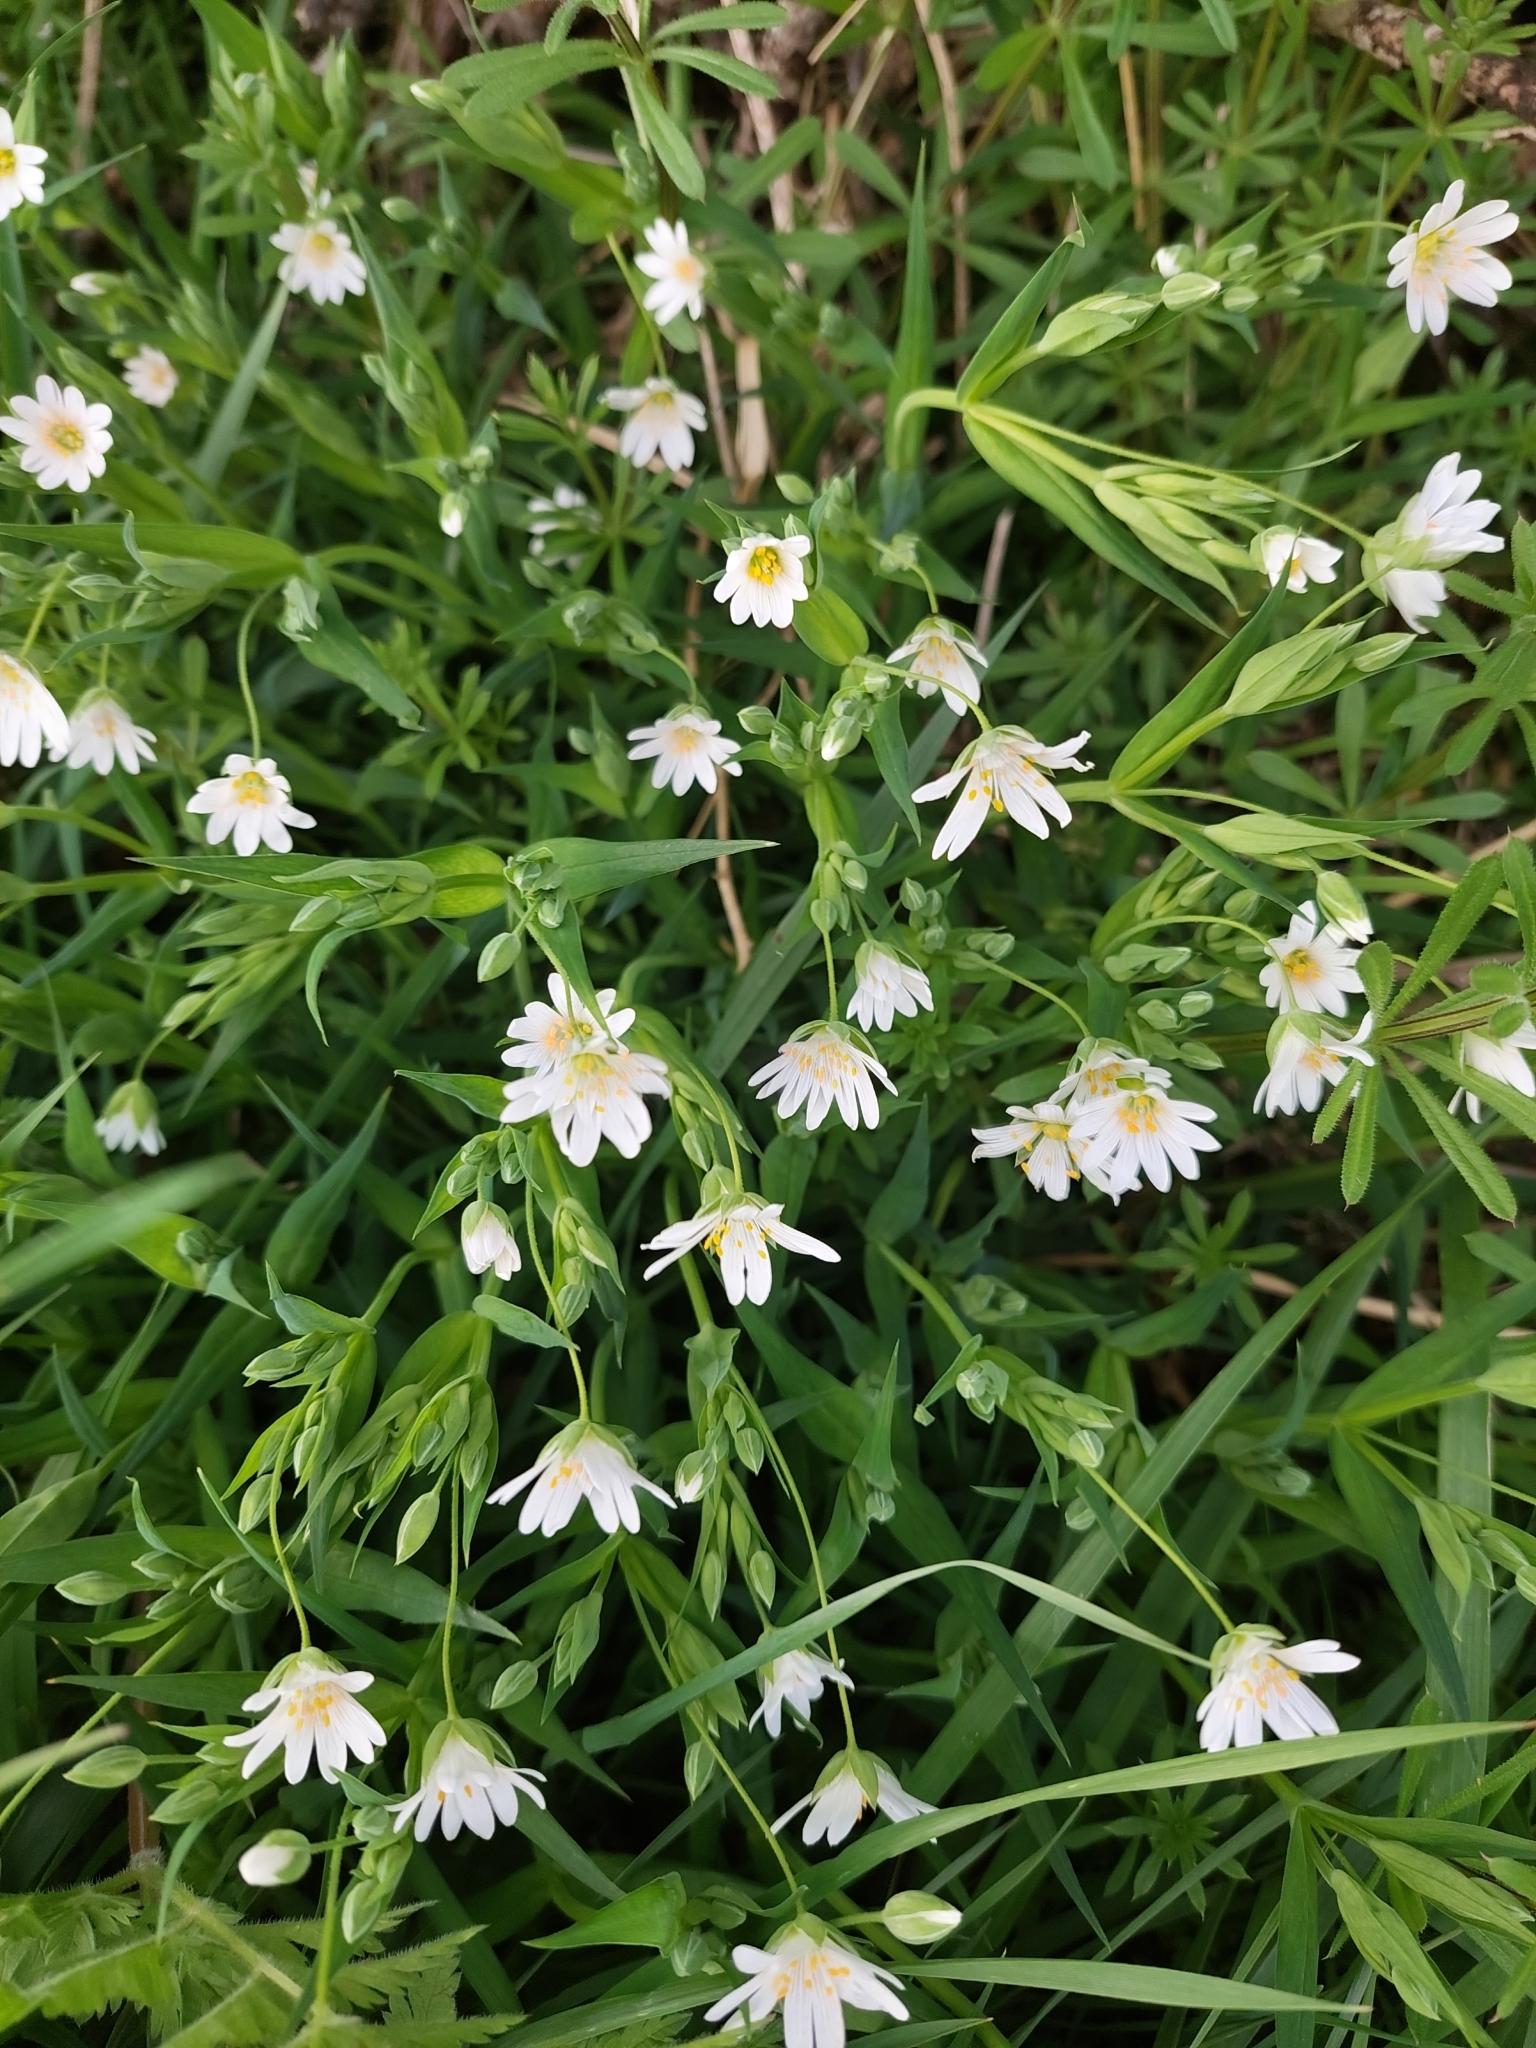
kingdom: Plantae
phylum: Tracheophyta
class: Magnoliopsida
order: Caryophyllales
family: Caryophyllaceae
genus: Rabelera
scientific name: Rabelera holostea
